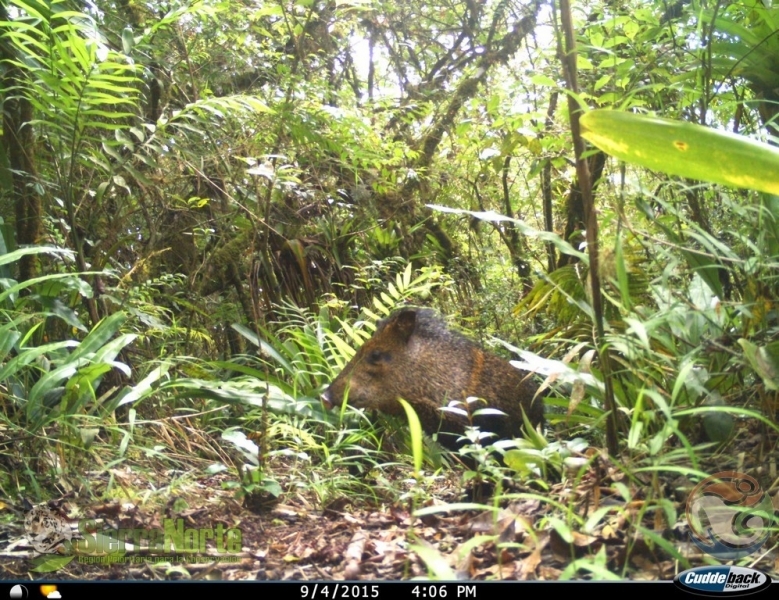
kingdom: Animalia
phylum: Chordata
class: Mammalia
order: Artiodactyla
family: Tayassuidae
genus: Pecari
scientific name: Pecari tajacu
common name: Collared peccary
